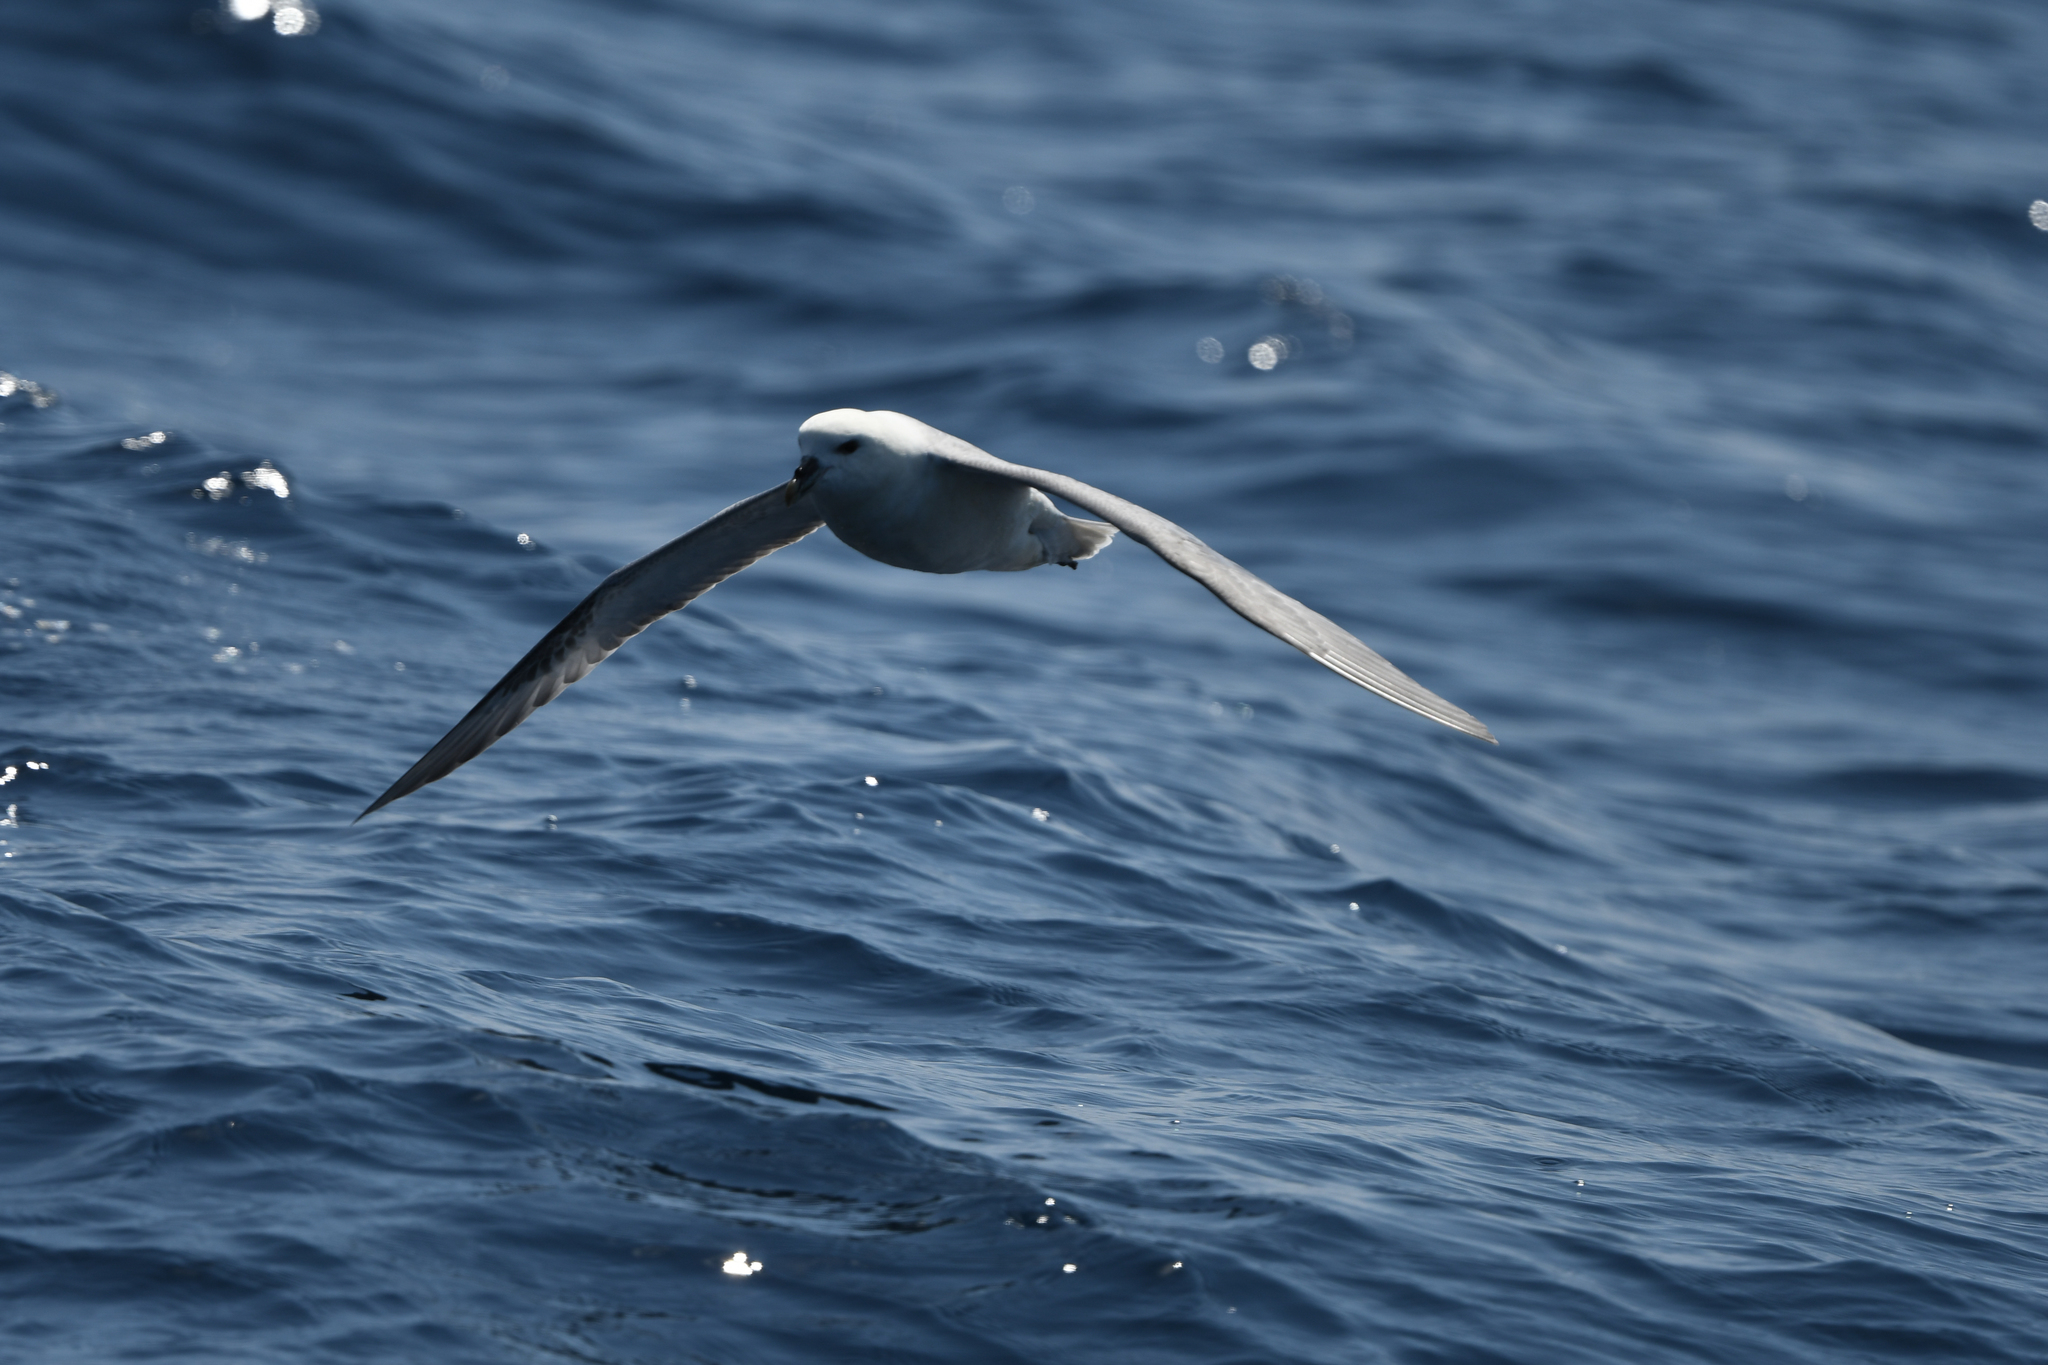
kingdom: Animalia
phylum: Chordata
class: Aves
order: Procellariiformes
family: Procellariidae
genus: Fulmarus
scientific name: Fulmarus glacialis
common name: Northern fulmar
